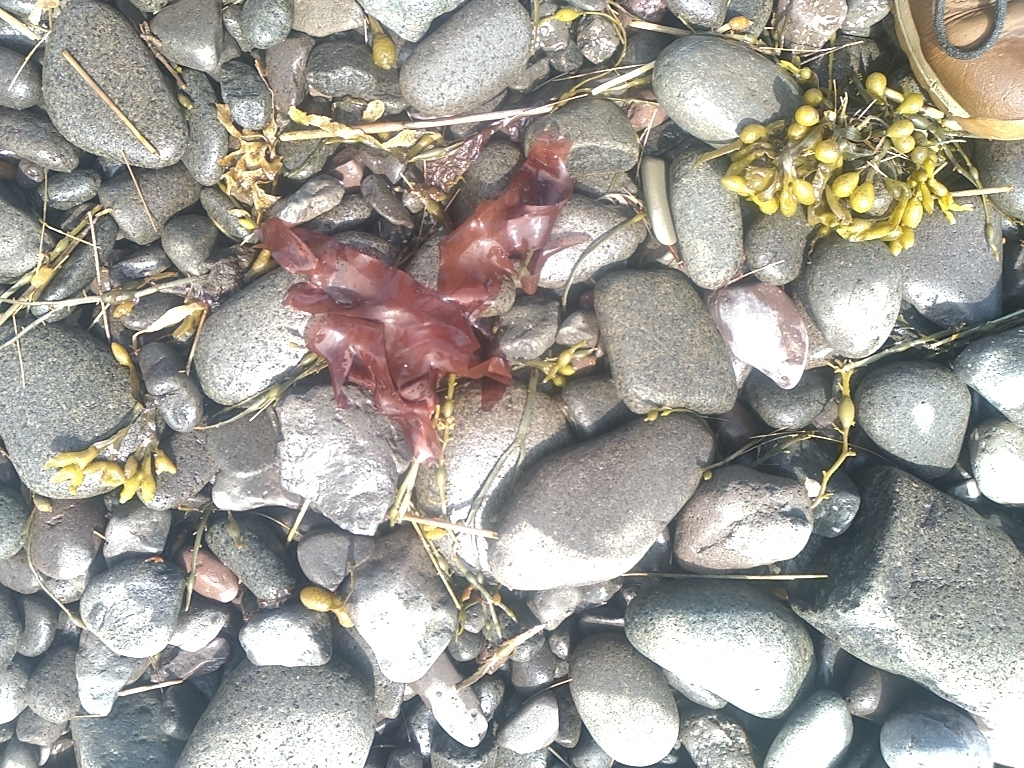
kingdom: Plantae
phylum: Rhodophyta
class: Florideophyceae
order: Palmariales
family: Palmariaceae
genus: Palmaria
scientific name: Palmaria palmata
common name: Dulse
